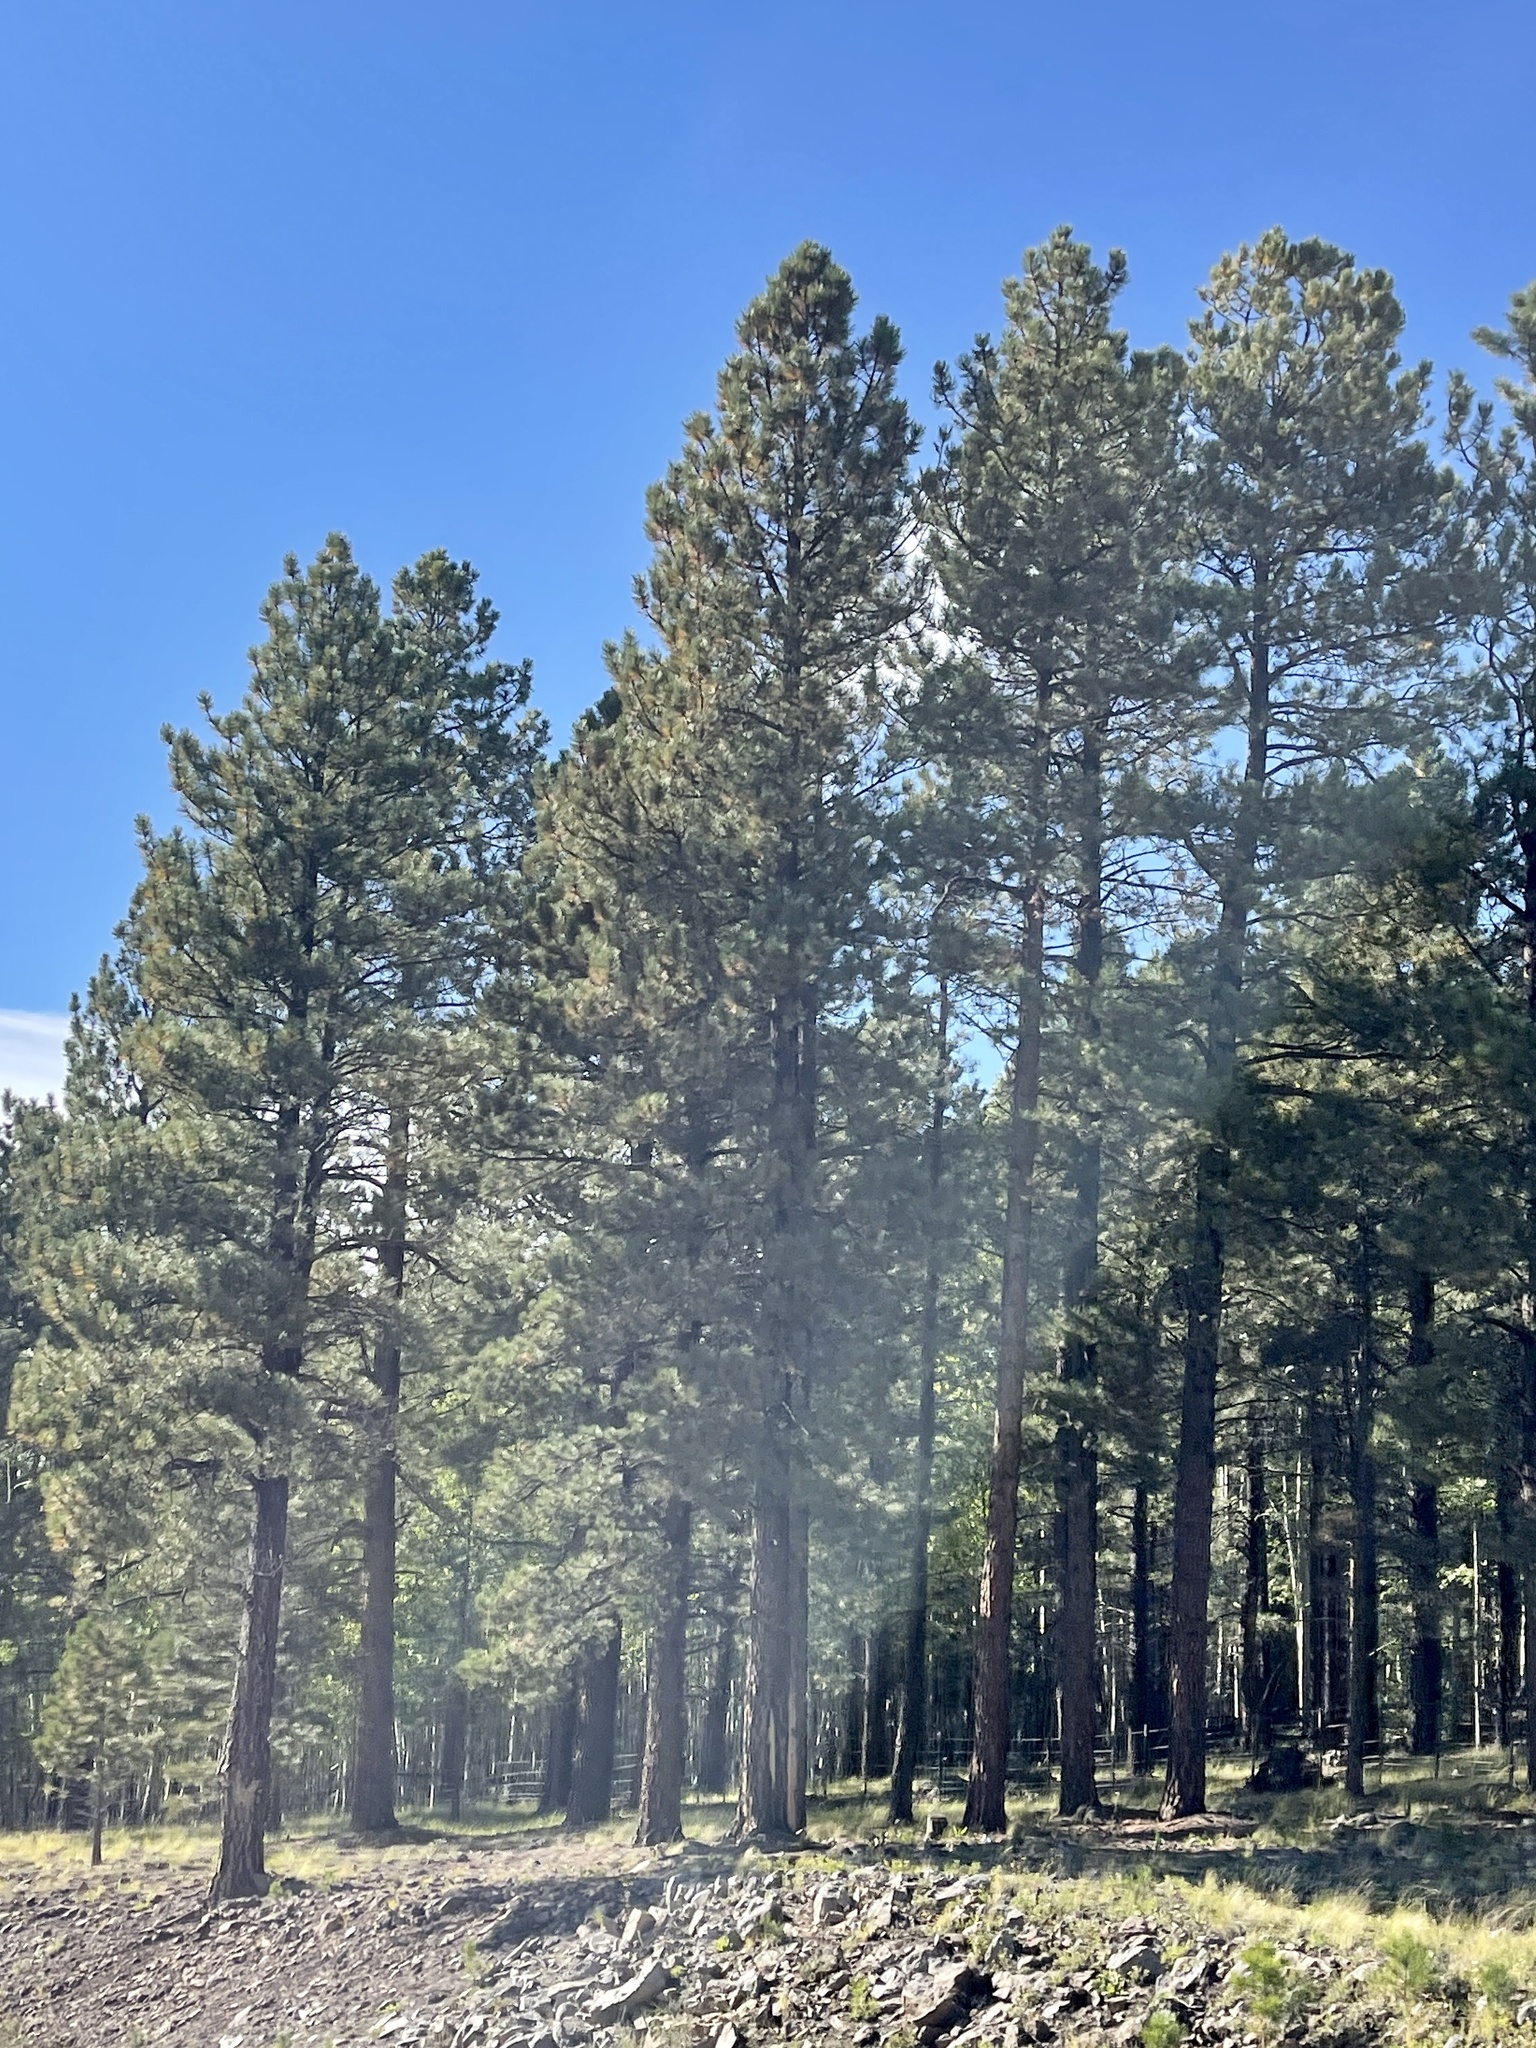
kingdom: Plantae
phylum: Tracheophyta
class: Pinopsida
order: Pinales
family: Pinaceae
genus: Pinus
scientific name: Pinus ponderosa
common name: Western yellow-pine
